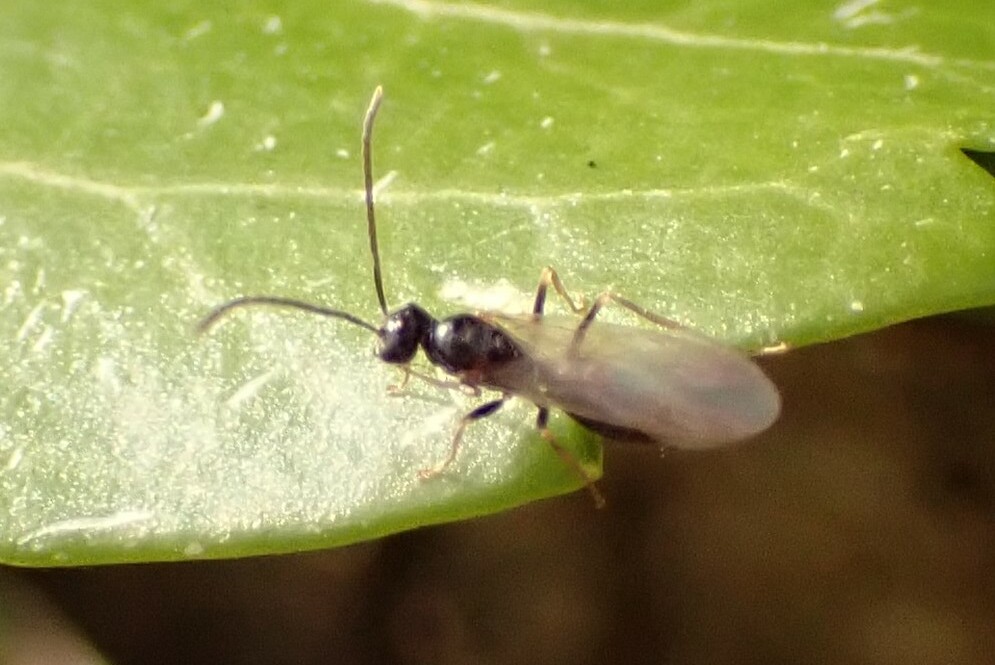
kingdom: Animalia
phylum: Arthropoda
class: Insecta
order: Hymenoptera
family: Formicidae
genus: Prenolepis
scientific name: Prenolepis imparis
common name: Small honey ant
